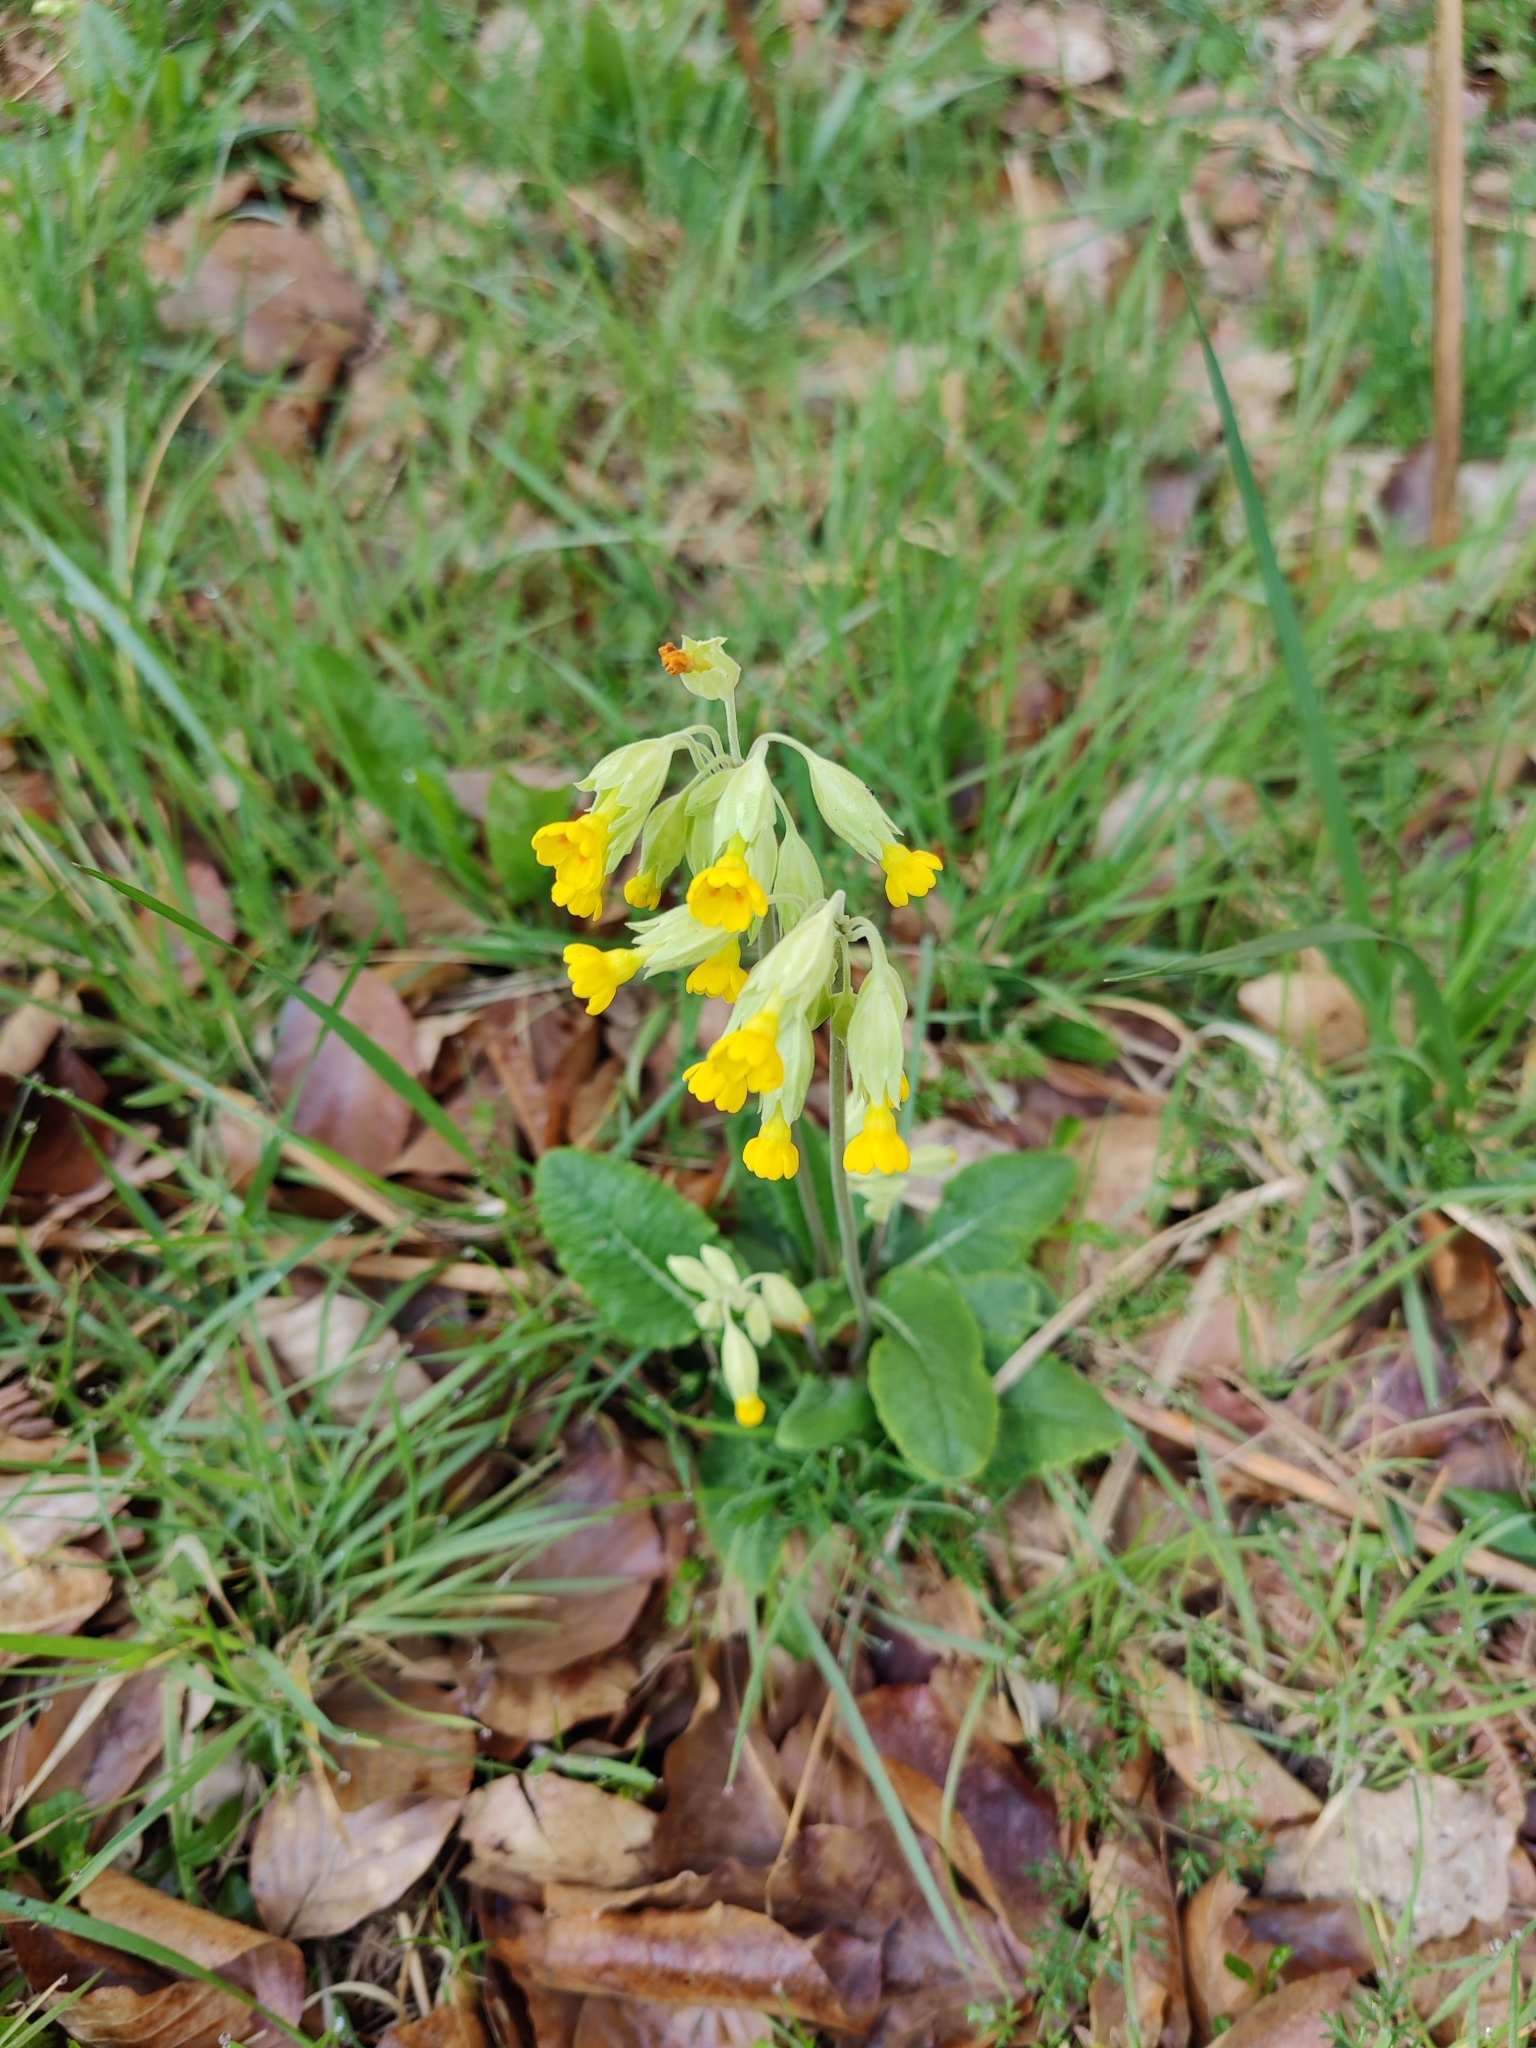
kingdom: Plantae
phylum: Tracheophyta
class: Magnoliopsida
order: Ericales
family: Primulaceae
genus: Primula
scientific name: Primula veris
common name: Cowslip
